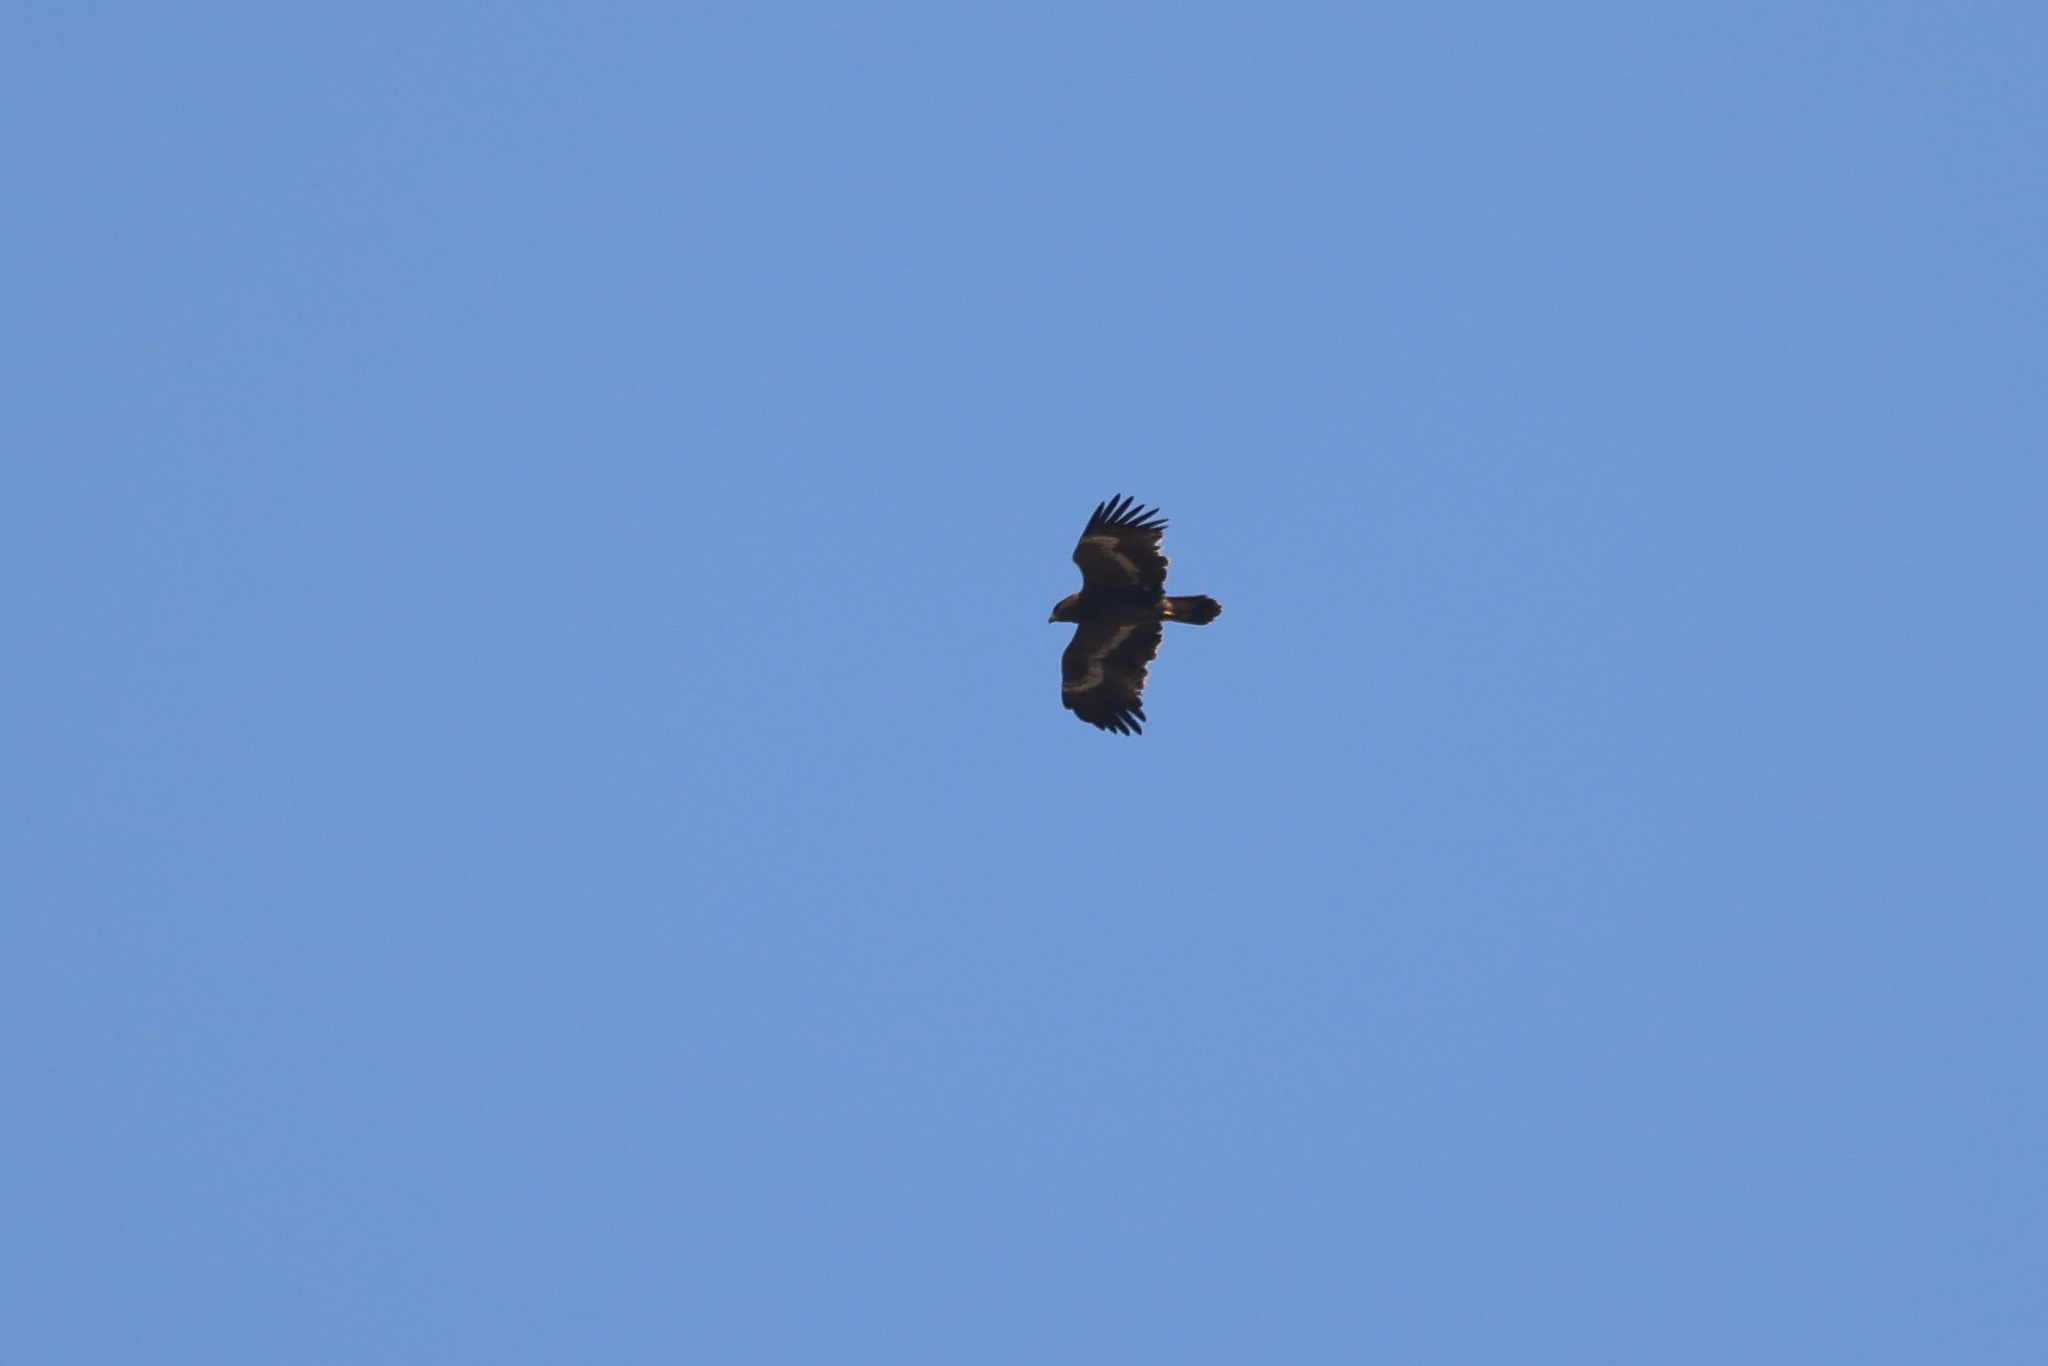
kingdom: Animalia
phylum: Chordata
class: Aves
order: Accipitriformes
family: Accipitridae
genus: Aquila
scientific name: Aquila nipalensis
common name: Steppe eagle
